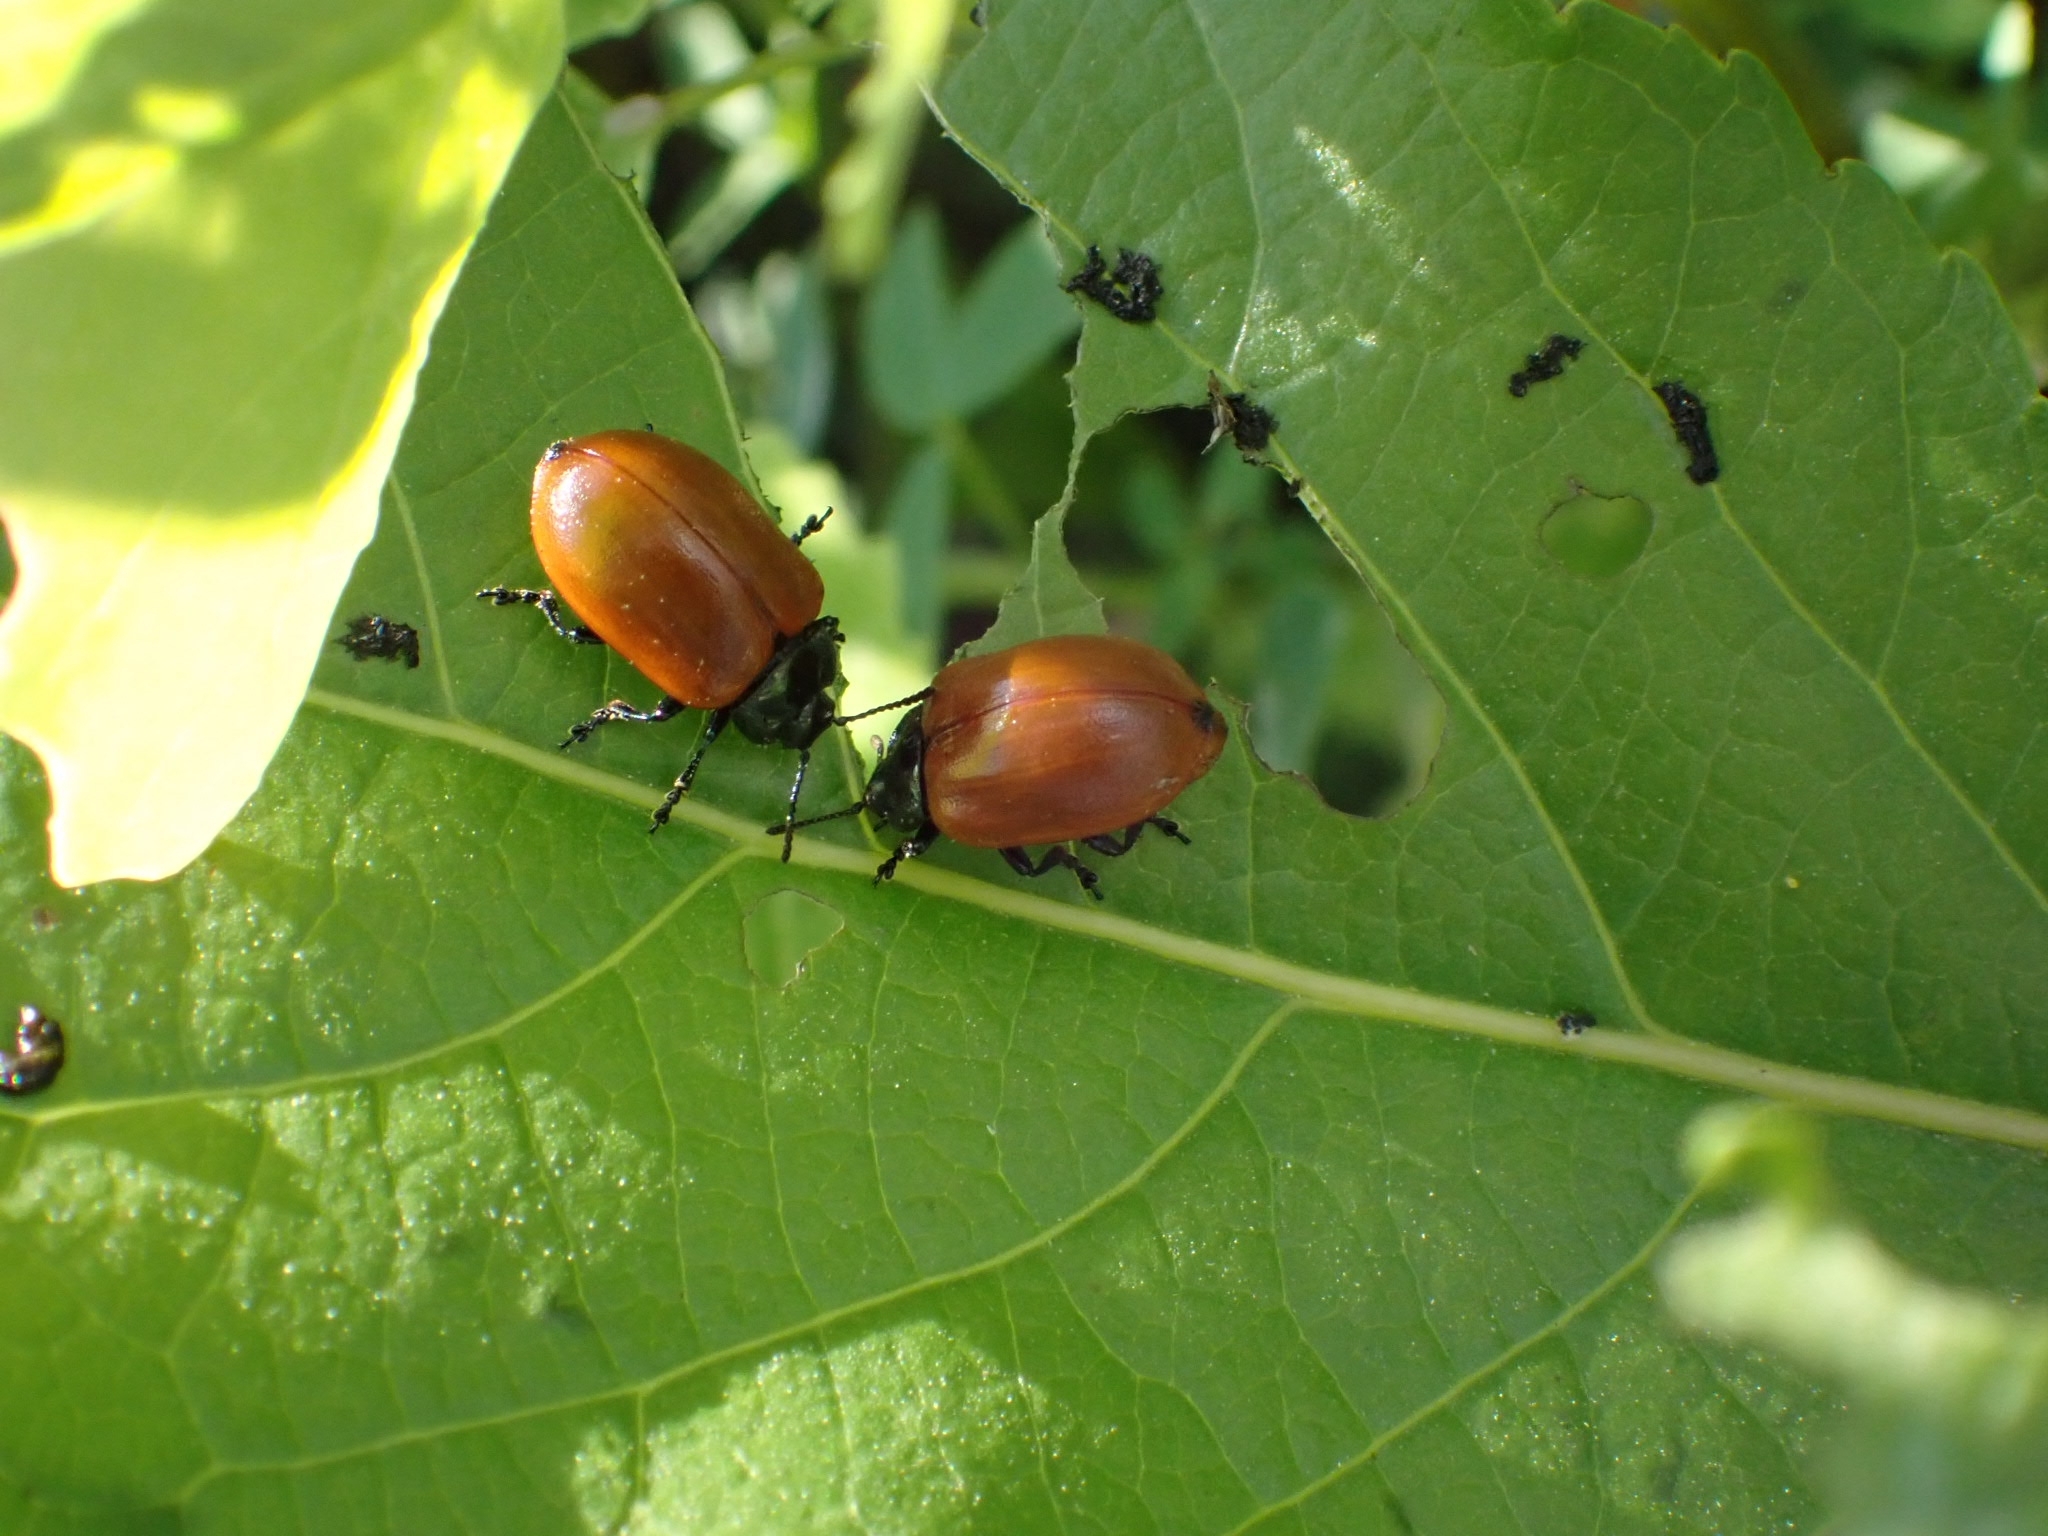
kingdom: Animalia
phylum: Arthropoda
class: Insecta
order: Coleoptera
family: Chrysomelidae
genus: Chrysomela
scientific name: Chrysomela populi
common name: Red poplar leaf beetle
